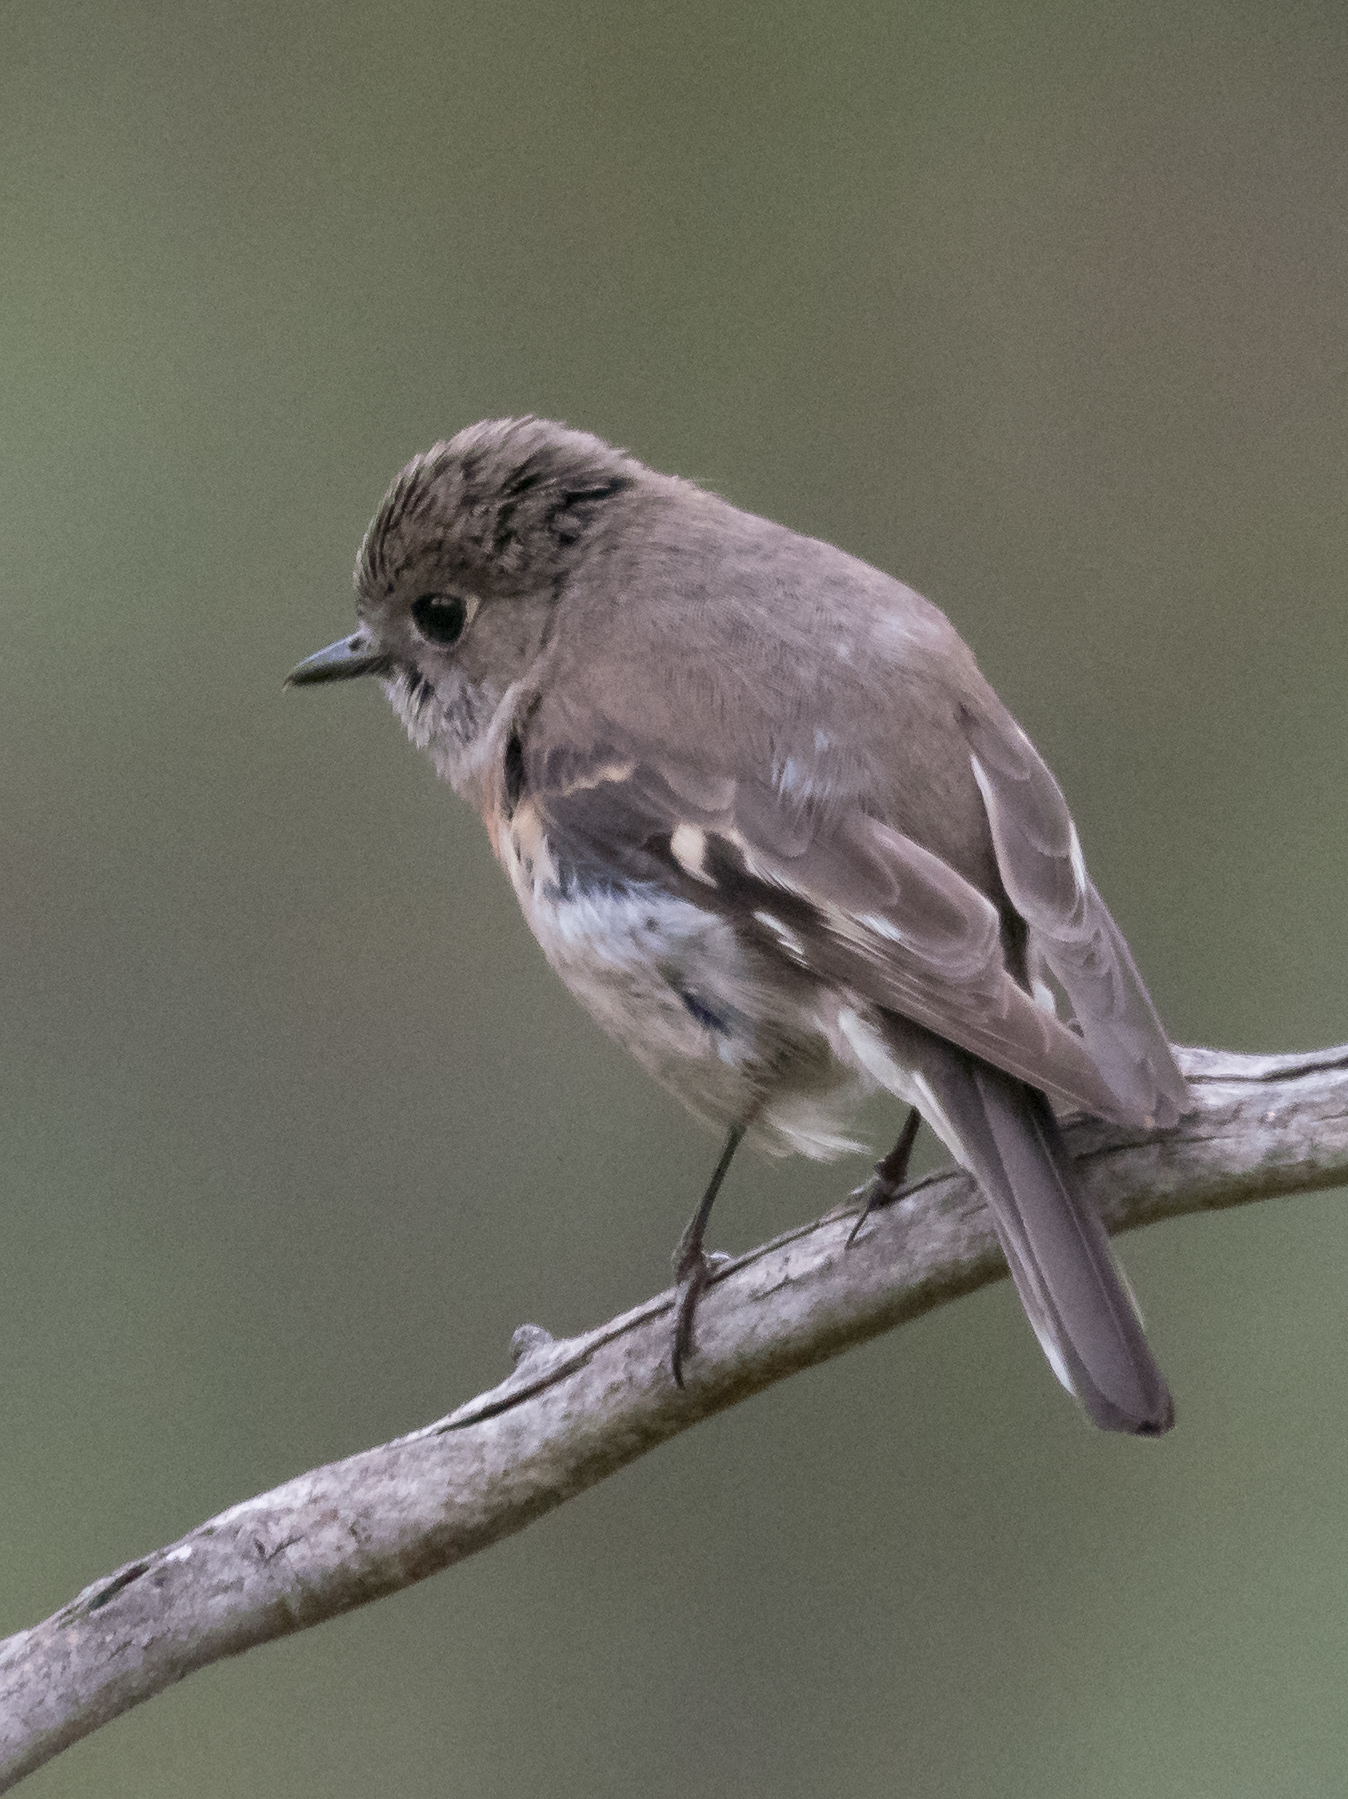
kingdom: Animalia
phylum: Chordata
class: Aves
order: Passeriformes
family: Petroicidae
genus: Petroica
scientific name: Petroica boodang
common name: Scarlet robin
